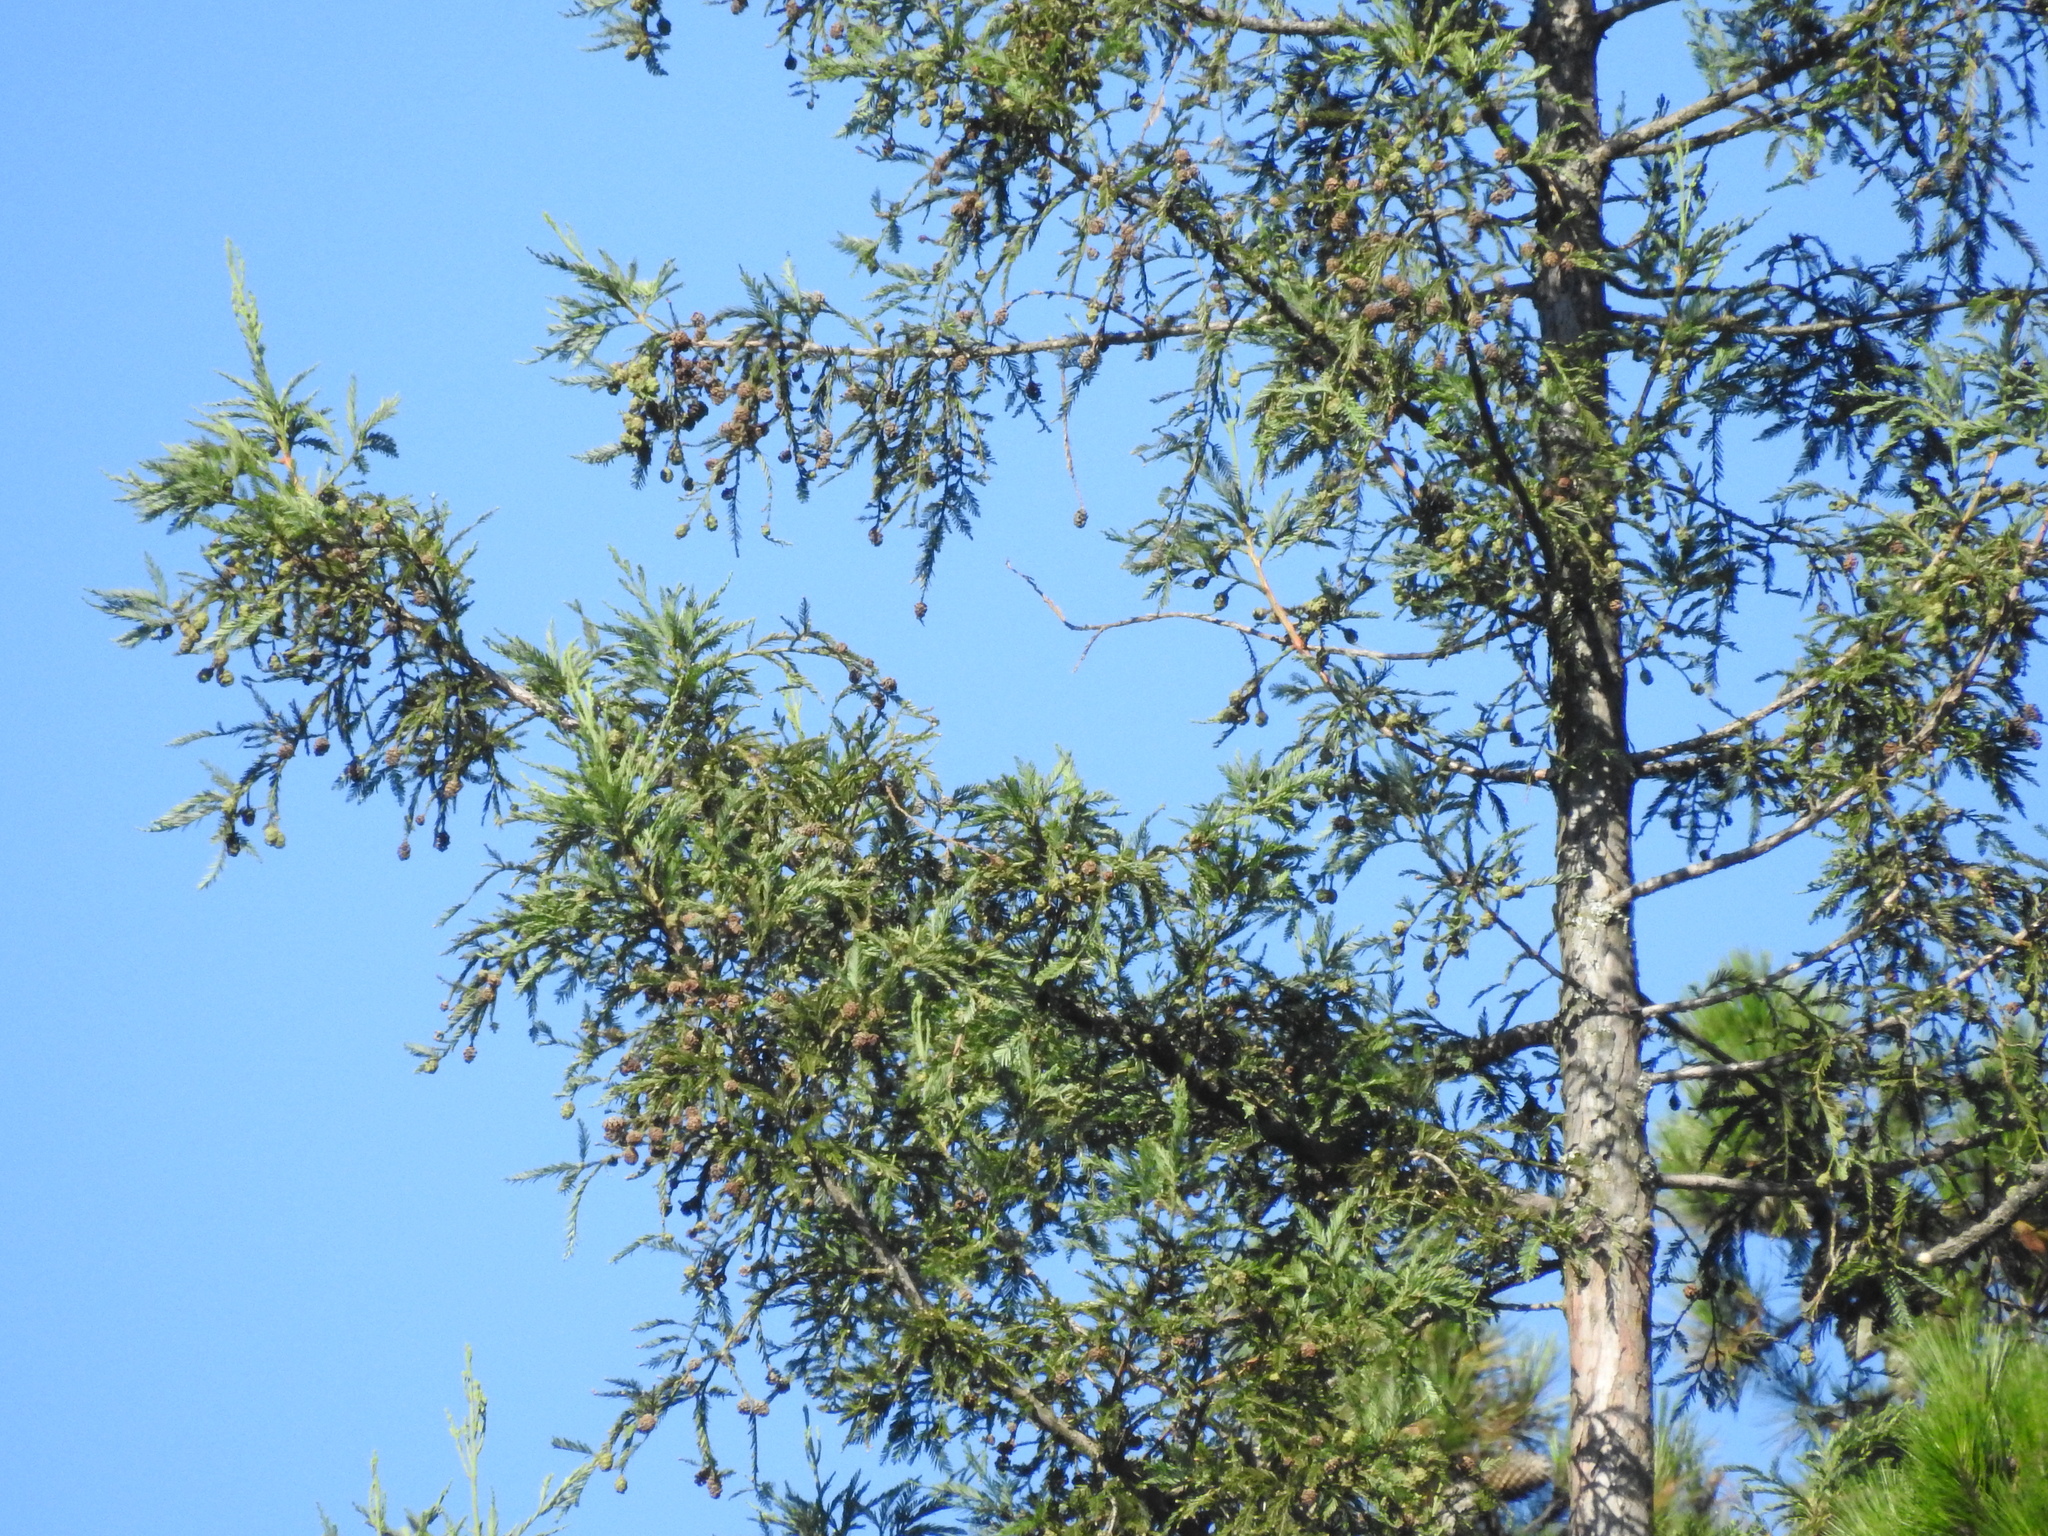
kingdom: Plantae
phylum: Tracheophyta
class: Pinopsida
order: Pinales
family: Cupressaceae
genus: Sequoia
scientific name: Sequoia sempervirens
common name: Coast redwood
